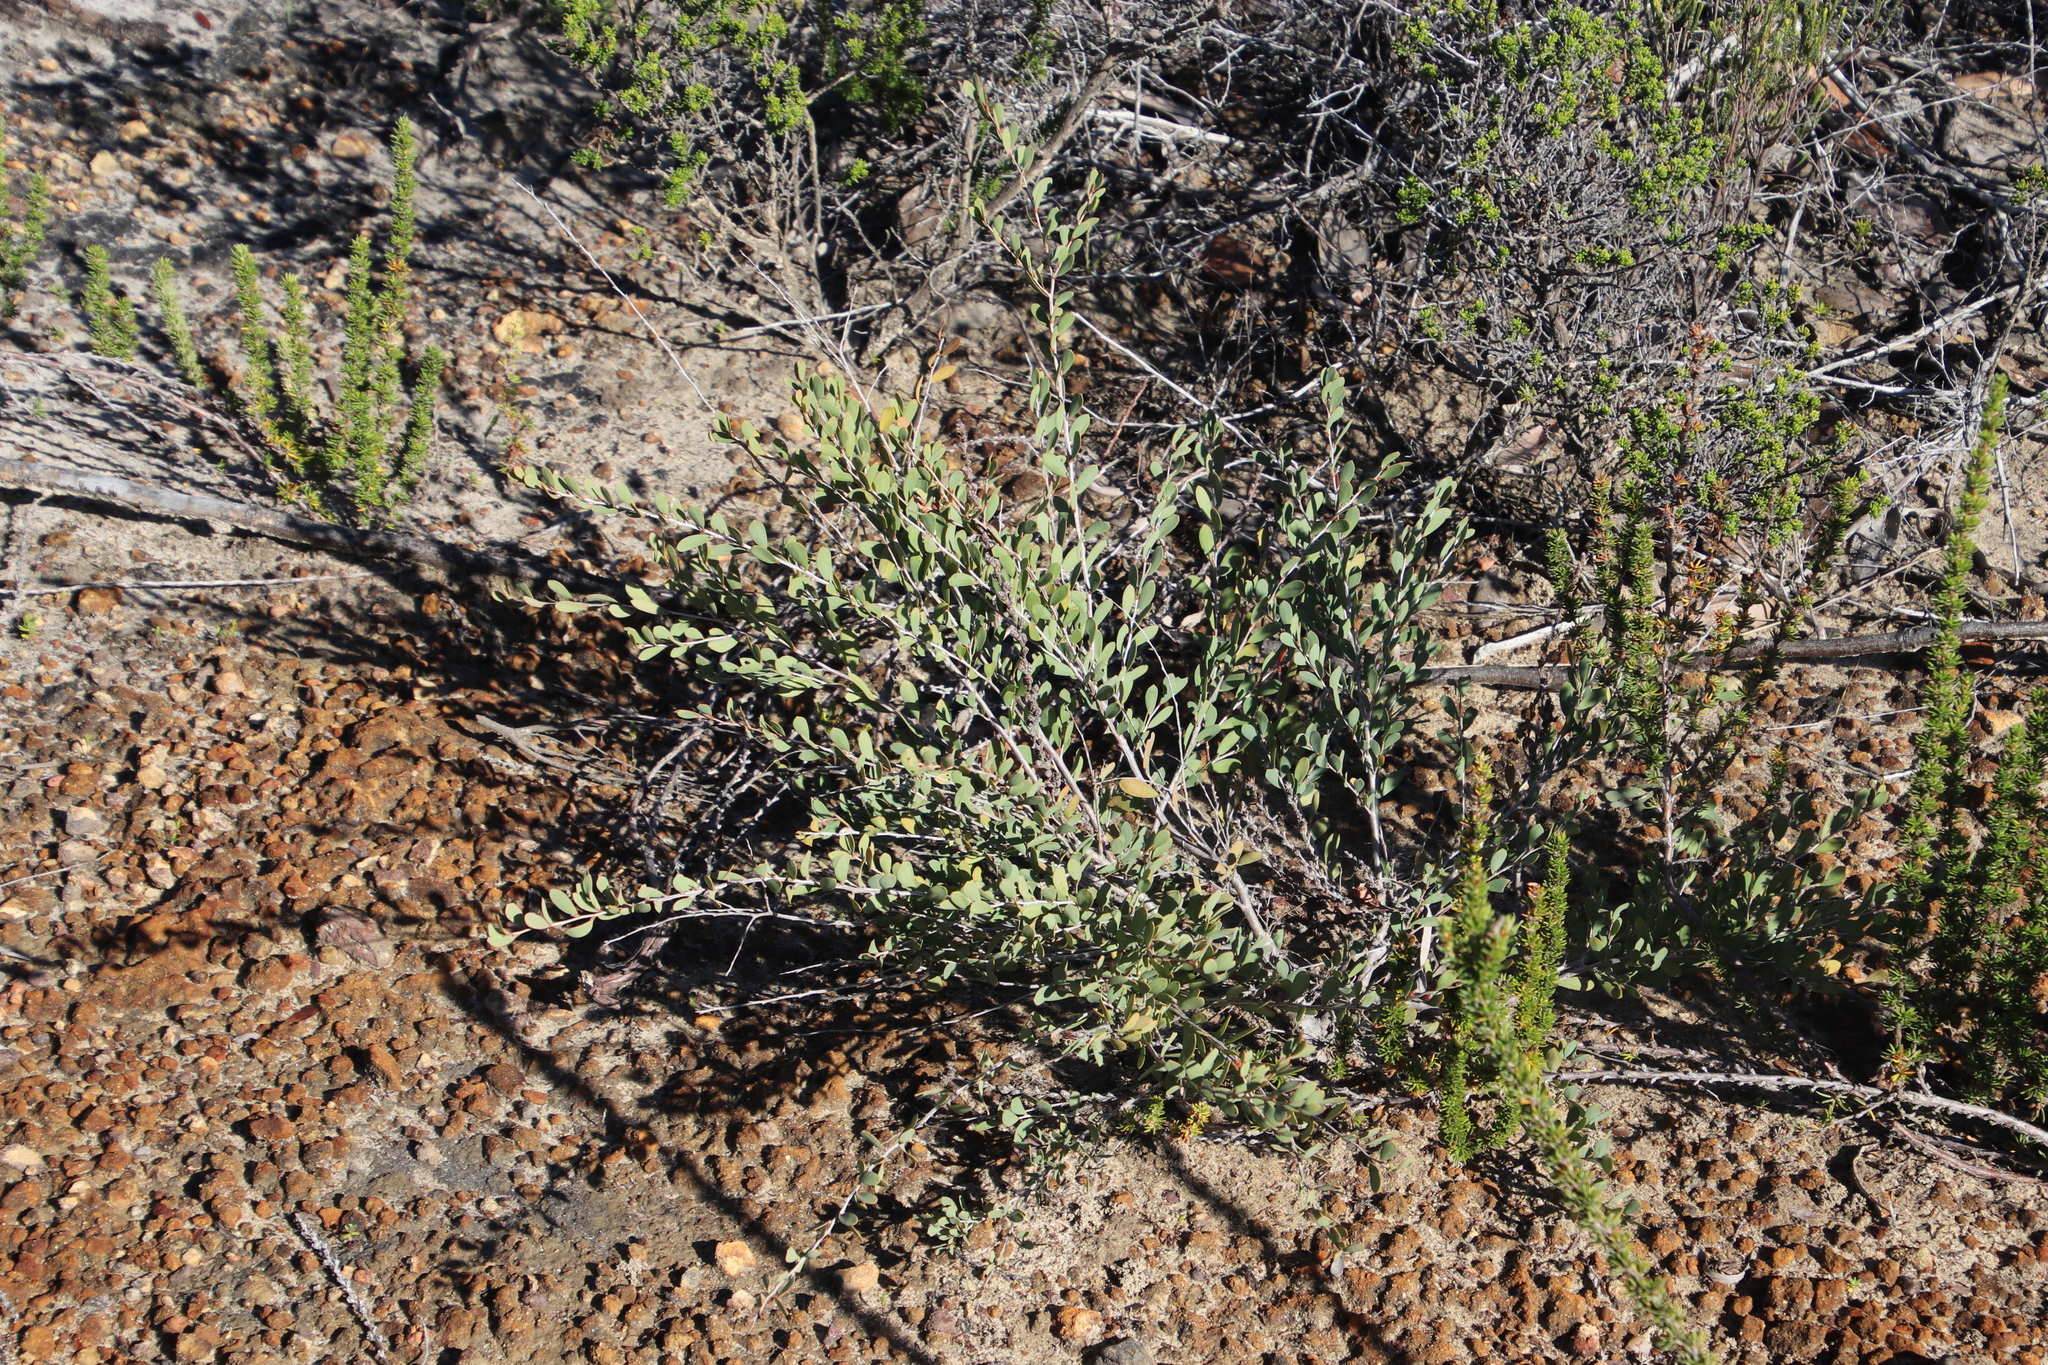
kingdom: Plantae
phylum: Tracheophyta
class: Magnoliopsida
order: Myrtales
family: Myrtaceae
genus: Leptospermum
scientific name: Leptospermum laevigatum
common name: Australian teatree
